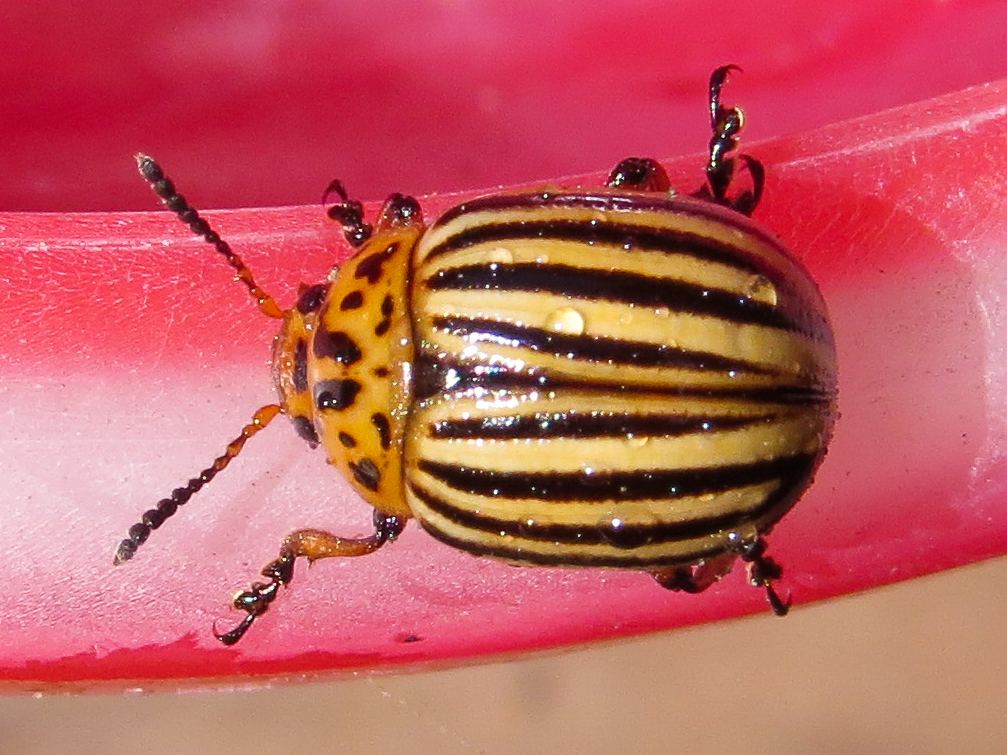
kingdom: Animalia
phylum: Arthropoda
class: Insecta
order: Coleoptera
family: Chrysomelidae
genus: Leptinotarsa
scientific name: Leptinotarsa decemlineata
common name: Colorado potato beetle
